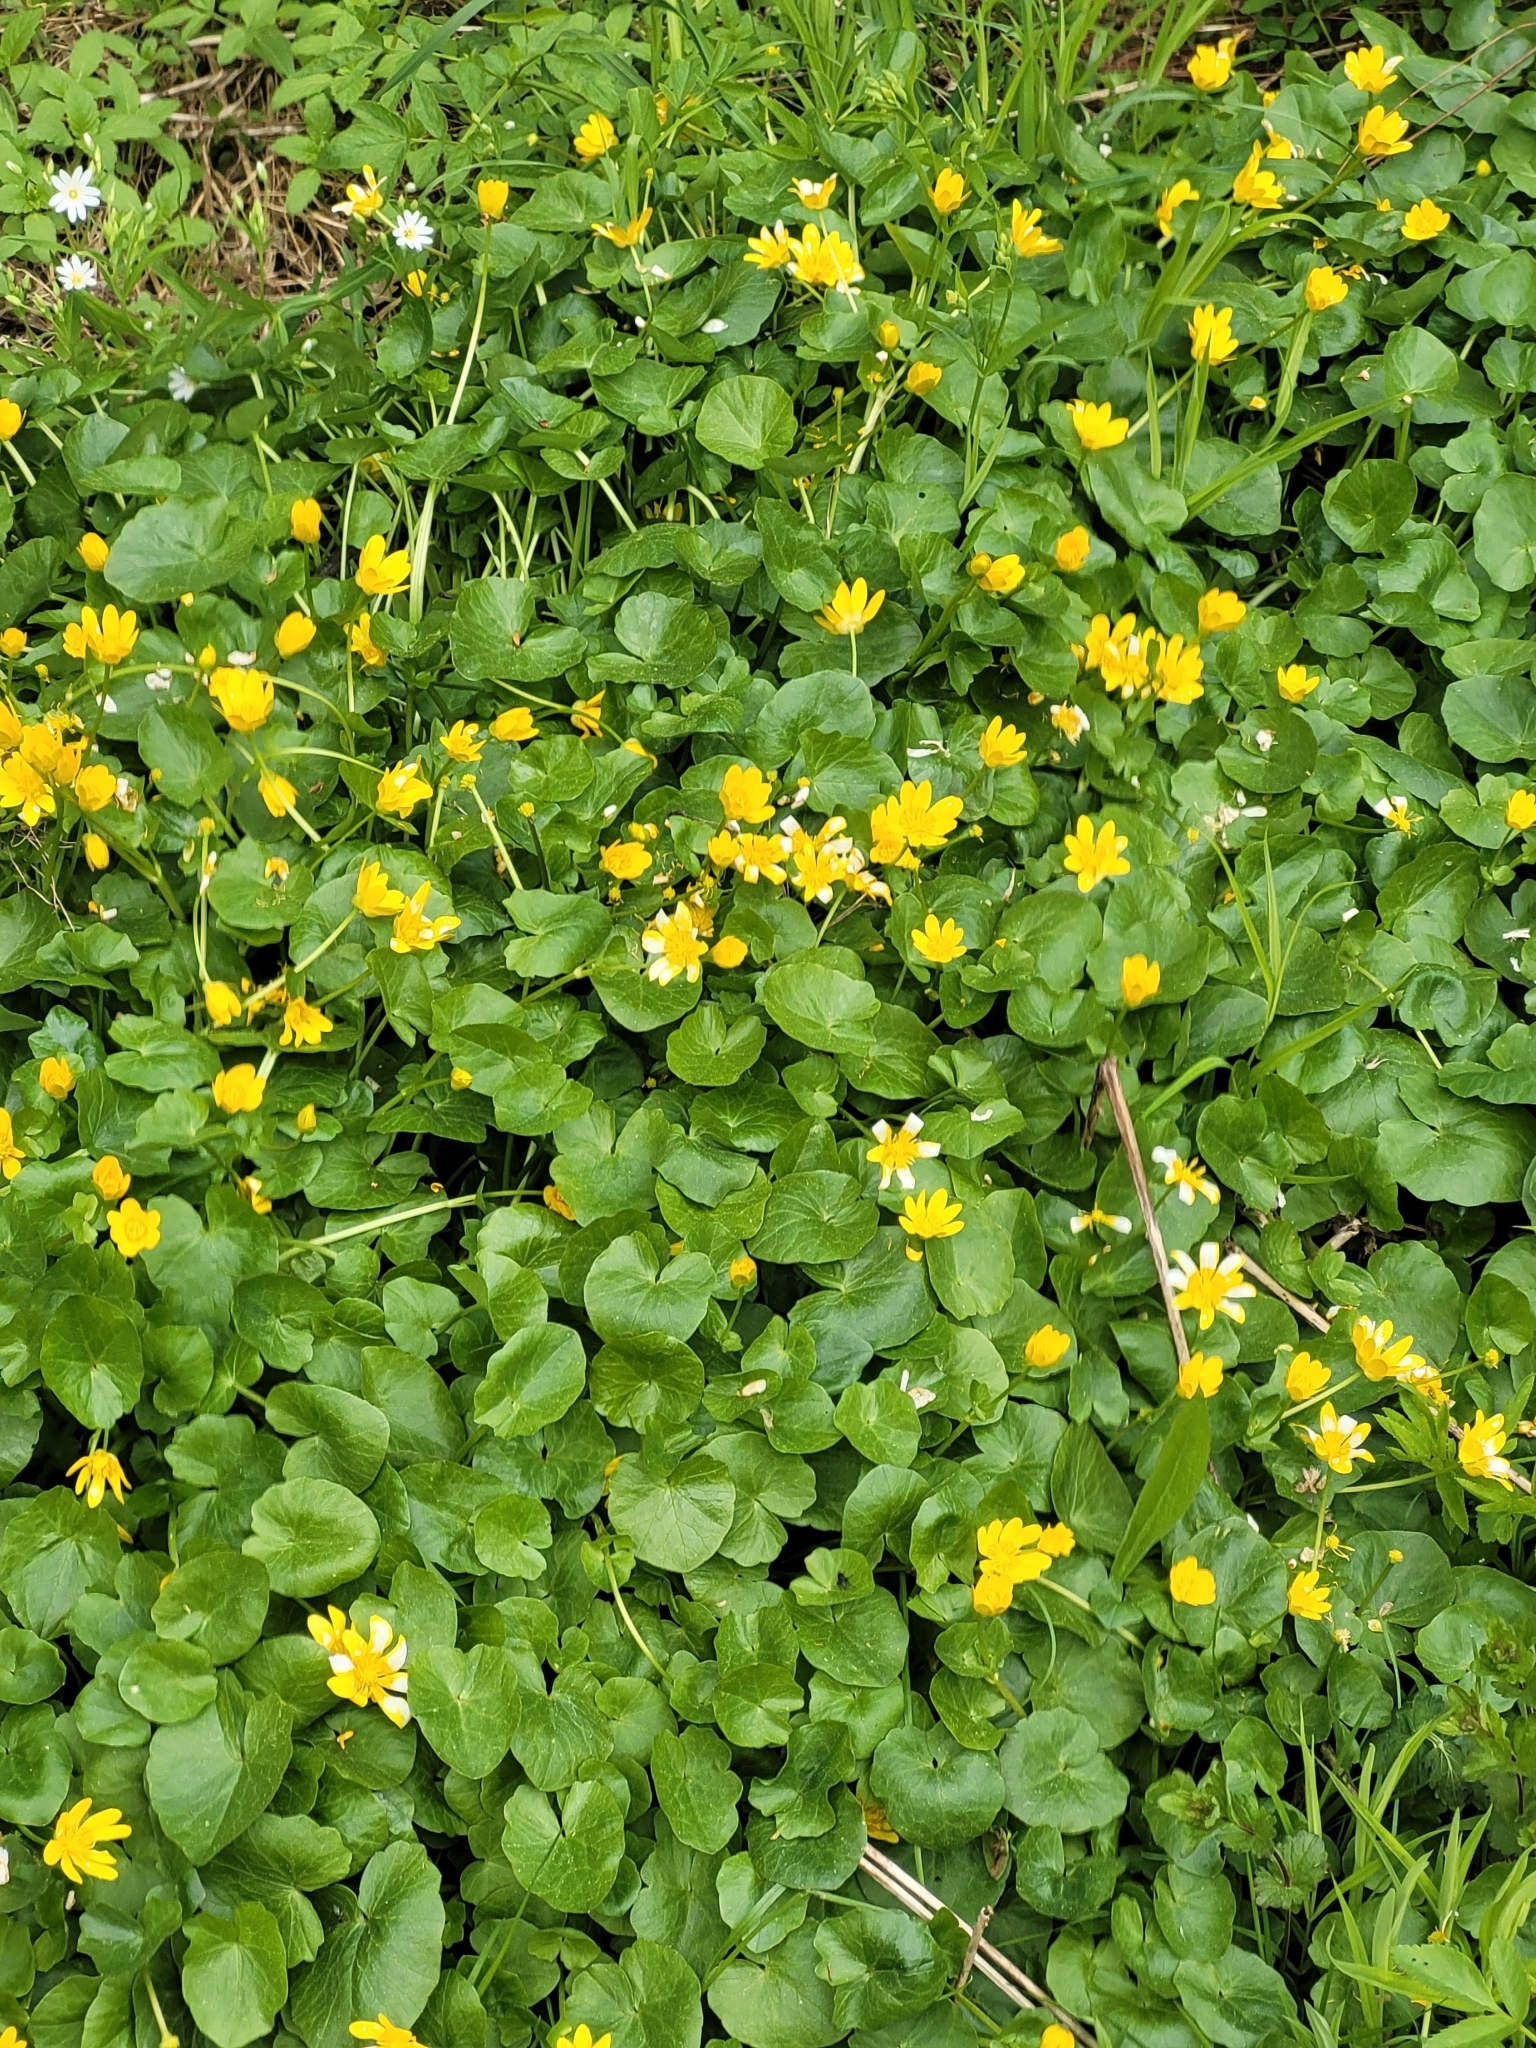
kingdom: Plantae
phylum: Tracheophyta
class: Magnoliopsida
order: Ranunculales
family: Ranunculaceae
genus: Ficaria
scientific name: Ficaria verna
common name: Lesser celandine
